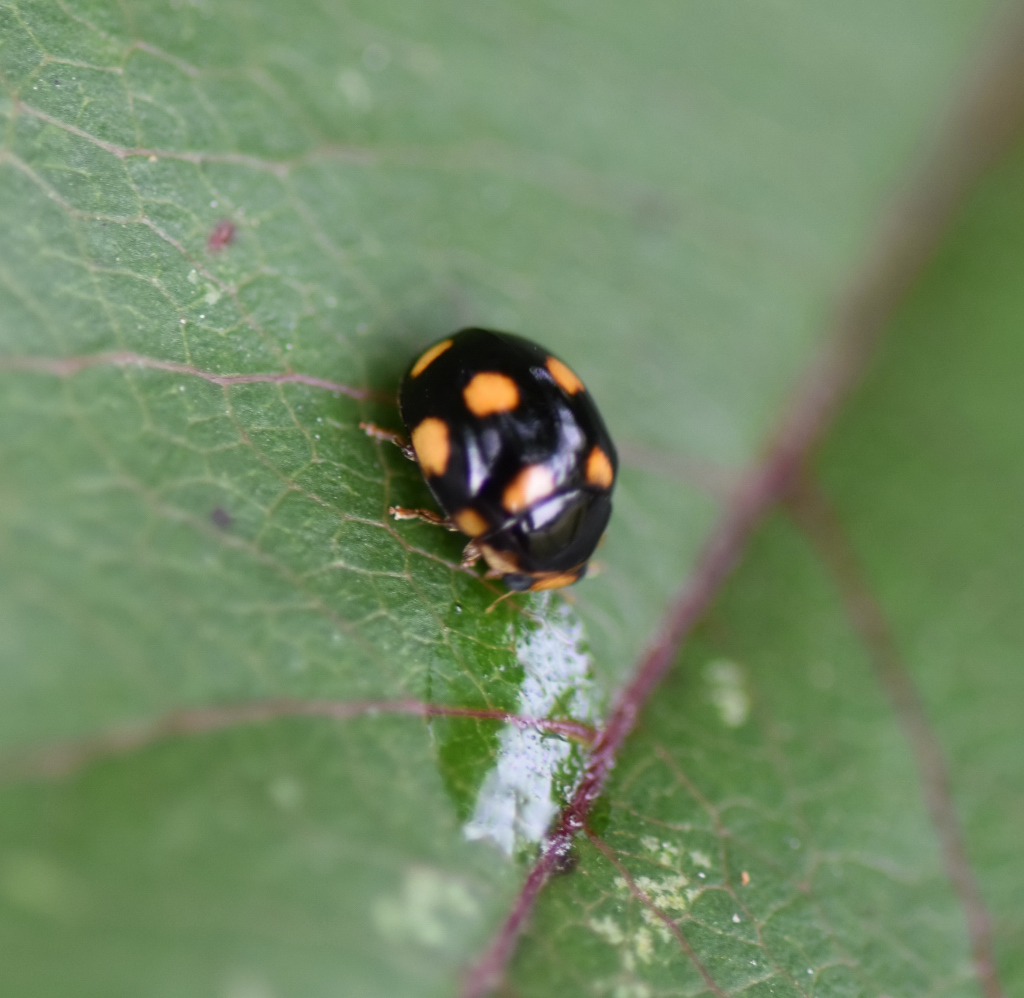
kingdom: Animalia
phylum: Arthropoda
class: Insecta
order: Coleoptera
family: Coccinellidae
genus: Brachiacantha
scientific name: Brachiacantha ursina
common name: Ursine spurleg lady beetle
